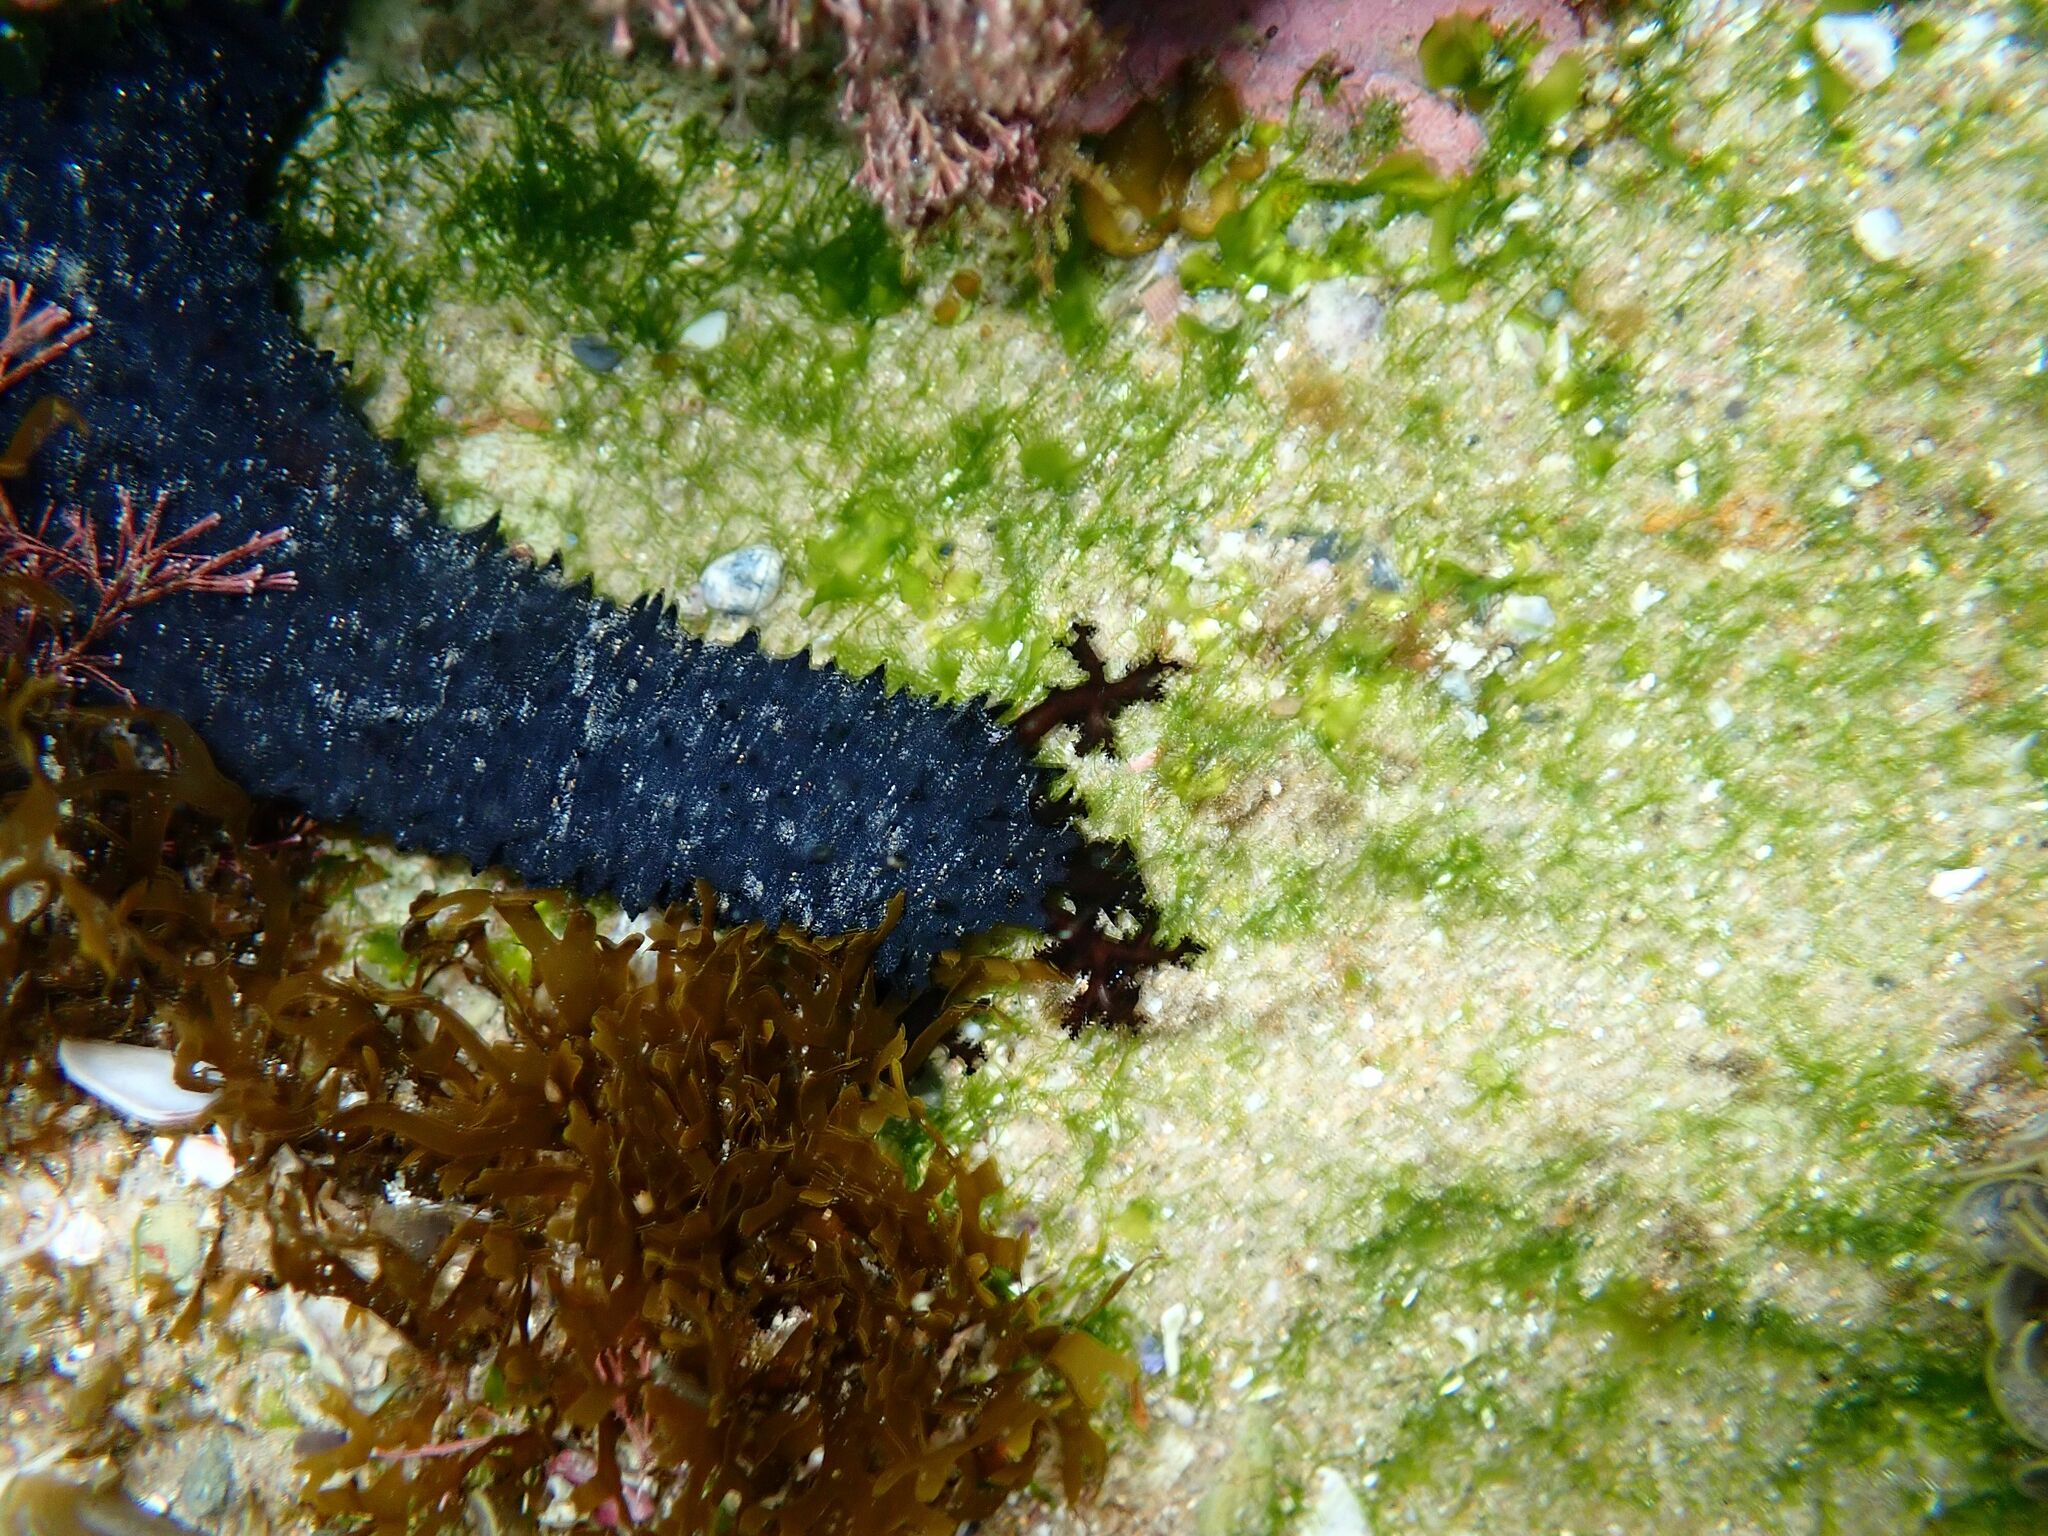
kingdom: Animalia
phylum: Echinodermata
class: Holothuroidea
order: Holothuriida
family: Holothuriidae
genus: Holothuria
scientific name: Holothuria leucospilota
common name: White thread fish
